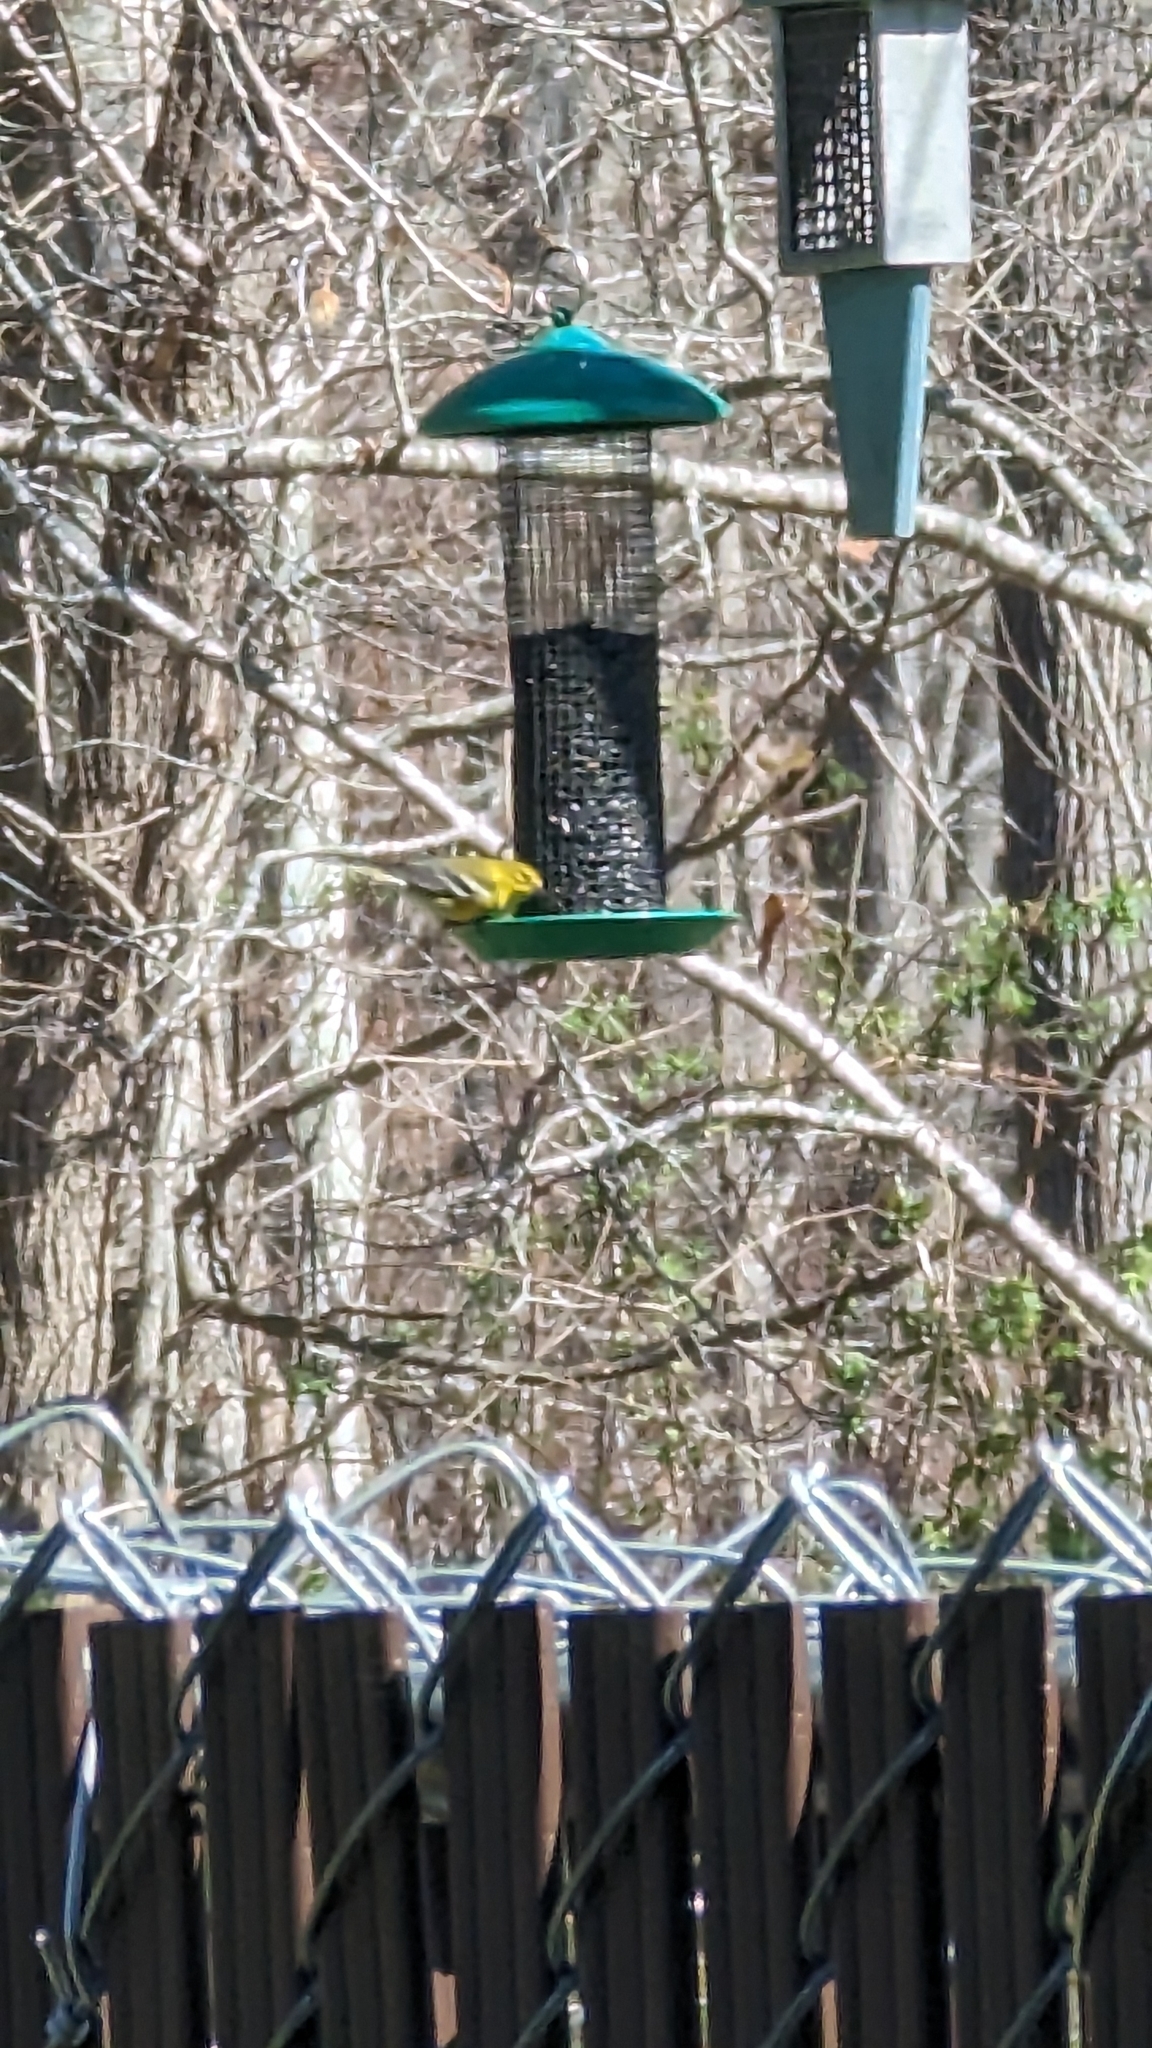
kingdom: Animalia
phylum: Chordata
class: Aves
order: Passeriformes
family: Parulidae
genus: Setophaga
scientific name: Setophaga pinus
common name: Pine warbler
